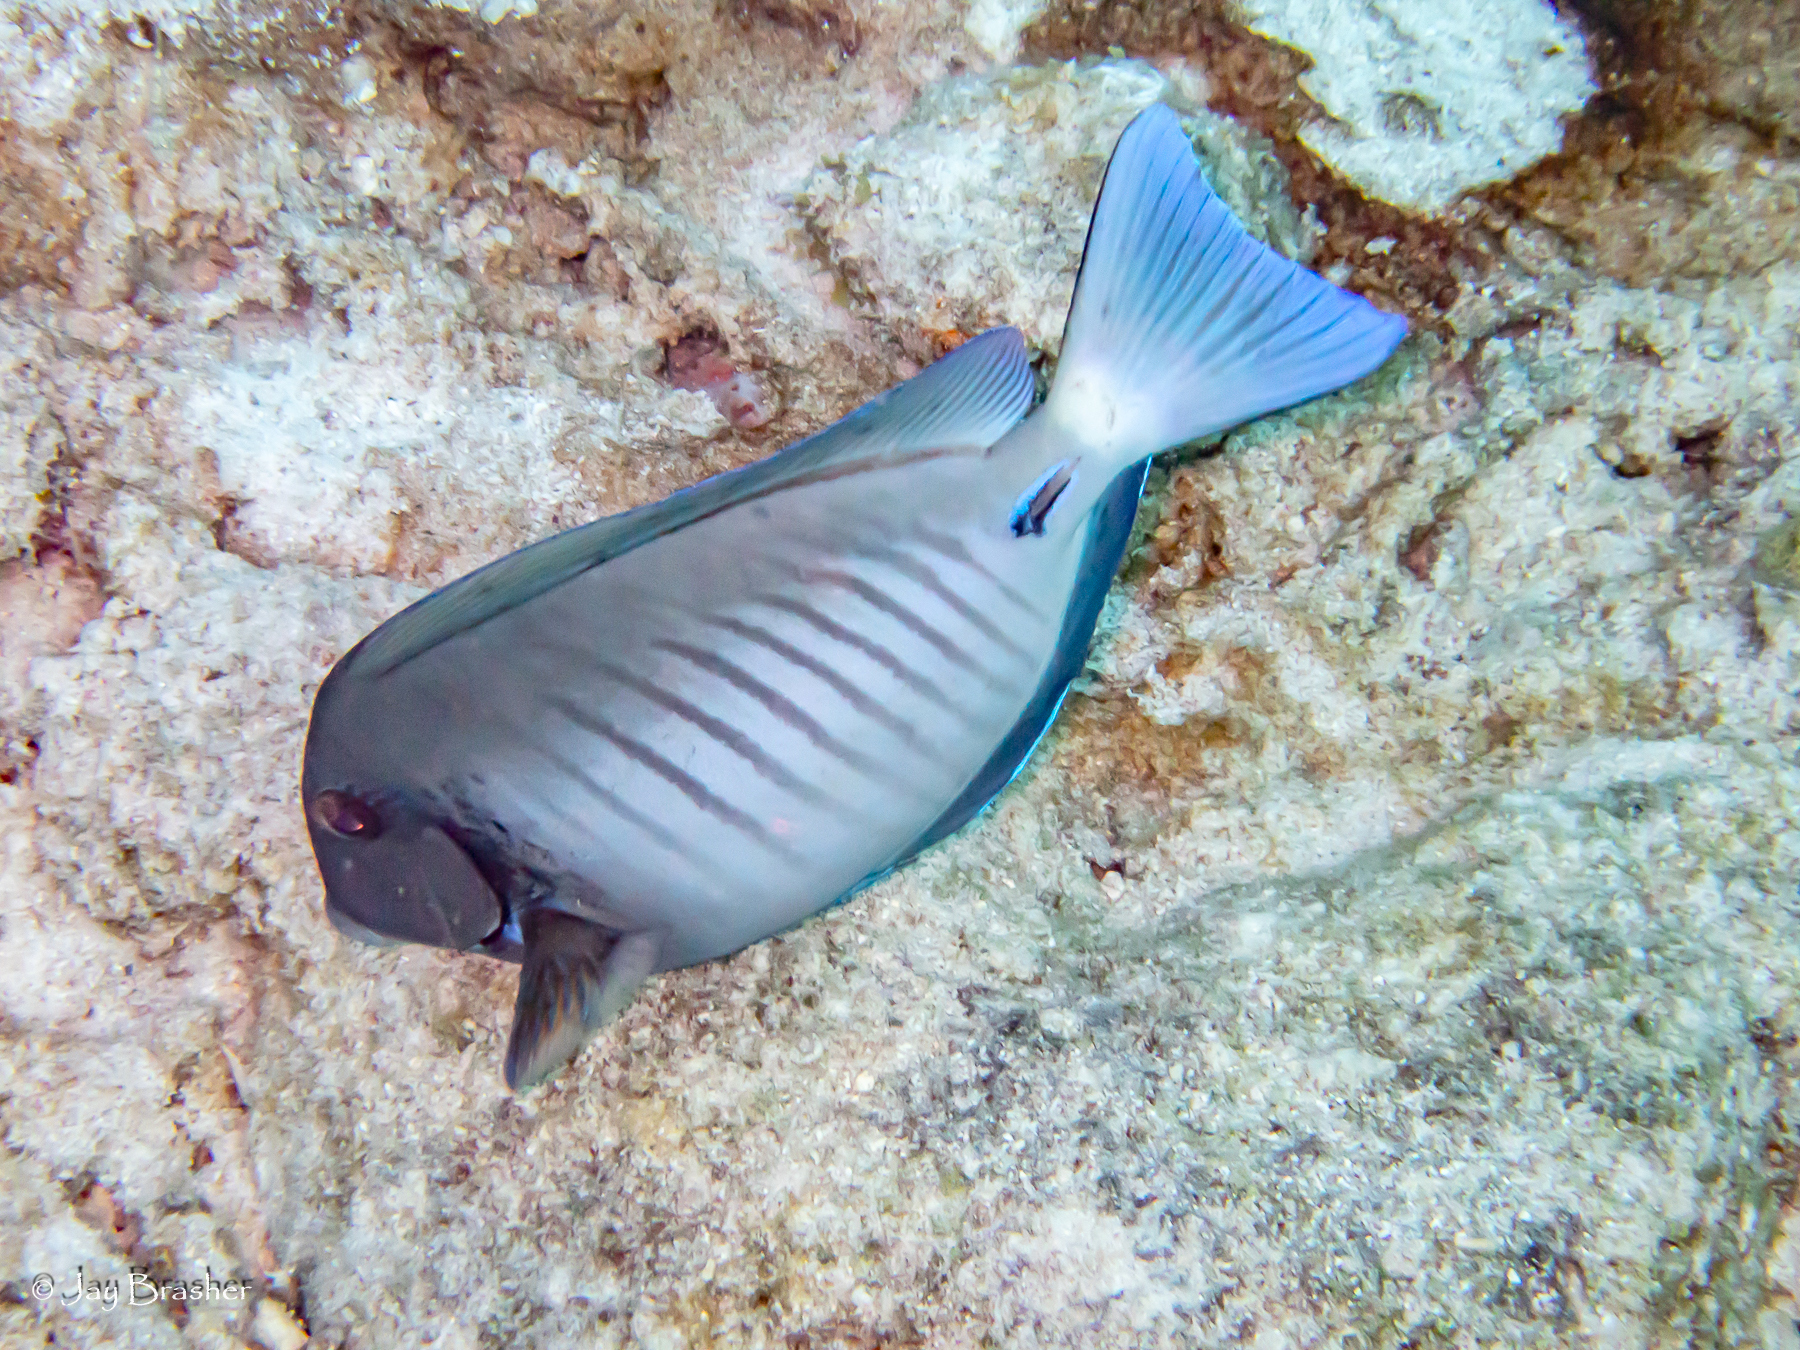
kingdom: Animalia
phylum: Chordata
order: Perciformes
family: Acanthuridae
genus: Acanthurus
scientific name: Acanthurus chirurgus
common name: Doctorfish
